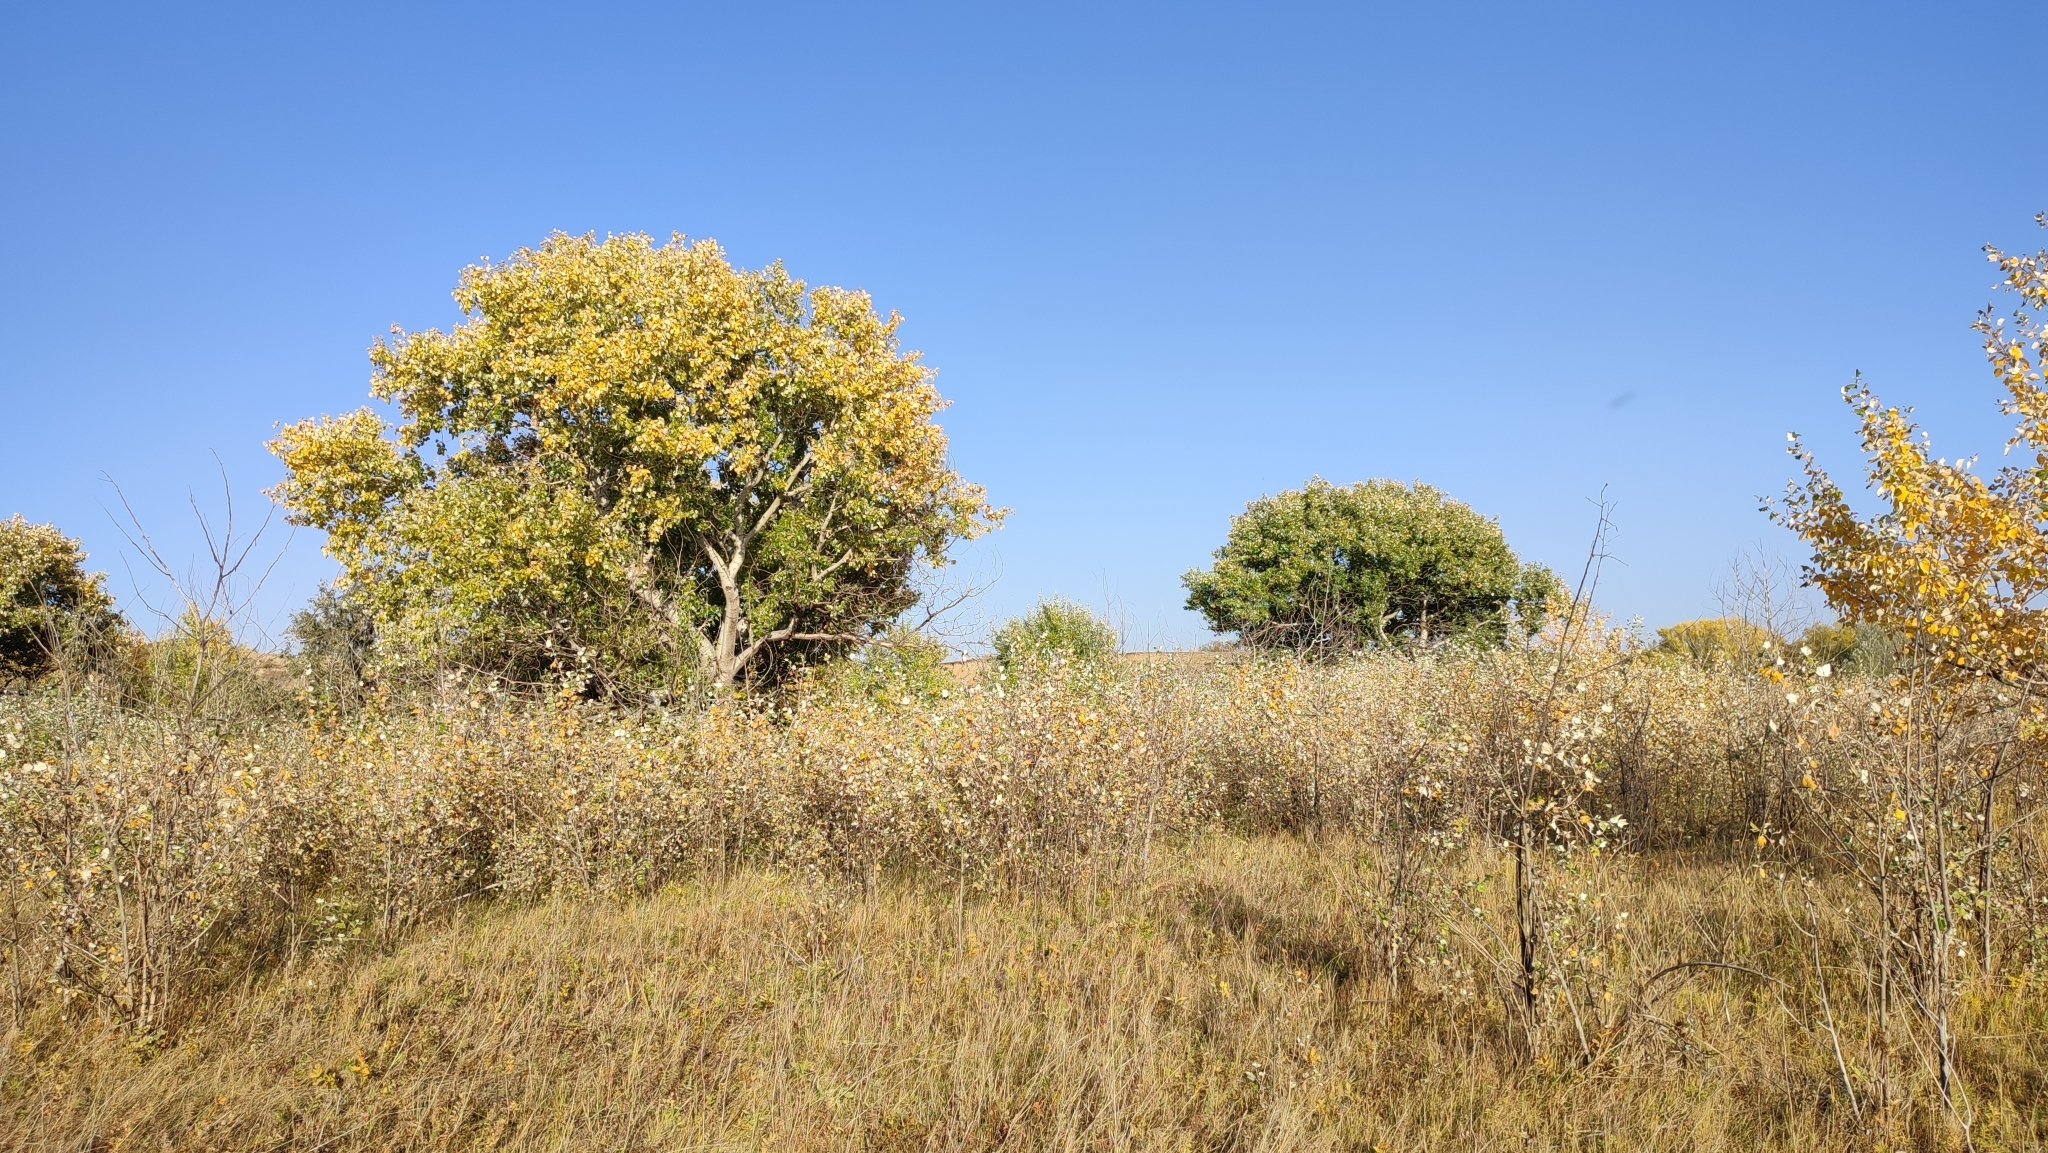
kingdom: Plantae
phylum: Tracheophyta
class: Magnoliopsida
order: Malpighiales
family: Salicaceae
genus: Populus
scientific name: Populus alba
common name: White poplar
